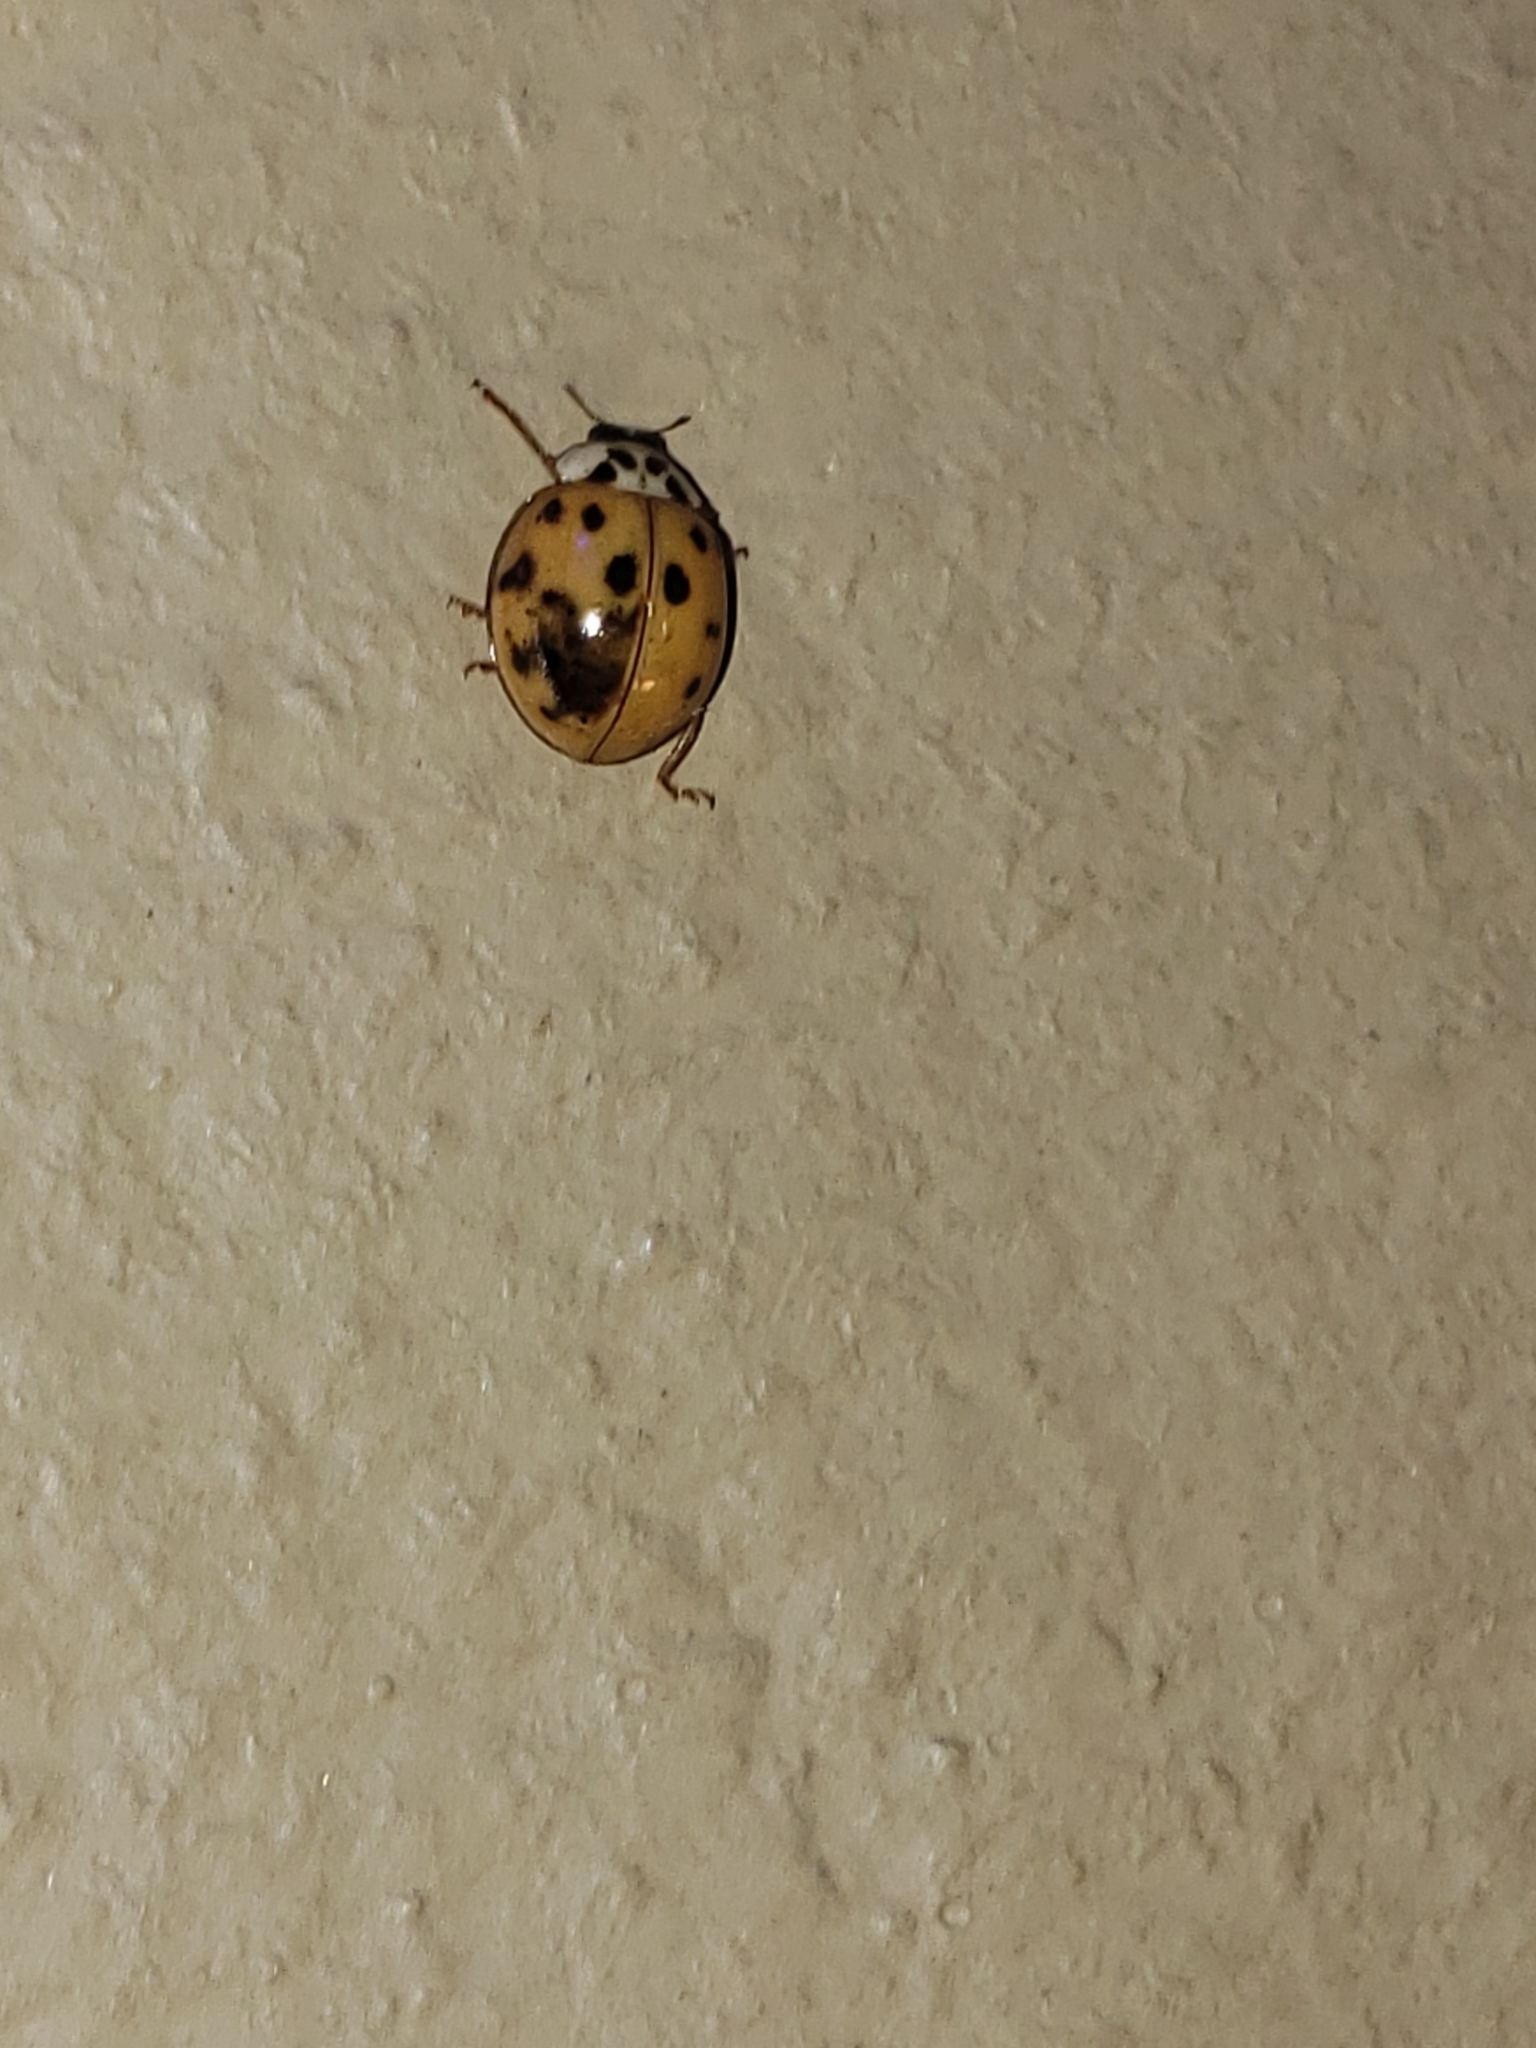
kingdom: Animalia
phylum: Arthropoda
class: Insecta
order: Coleoptera
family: Coccinellidae
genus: Harmonia
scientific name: Harmonia axyridis
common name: Harlequin ladybird
